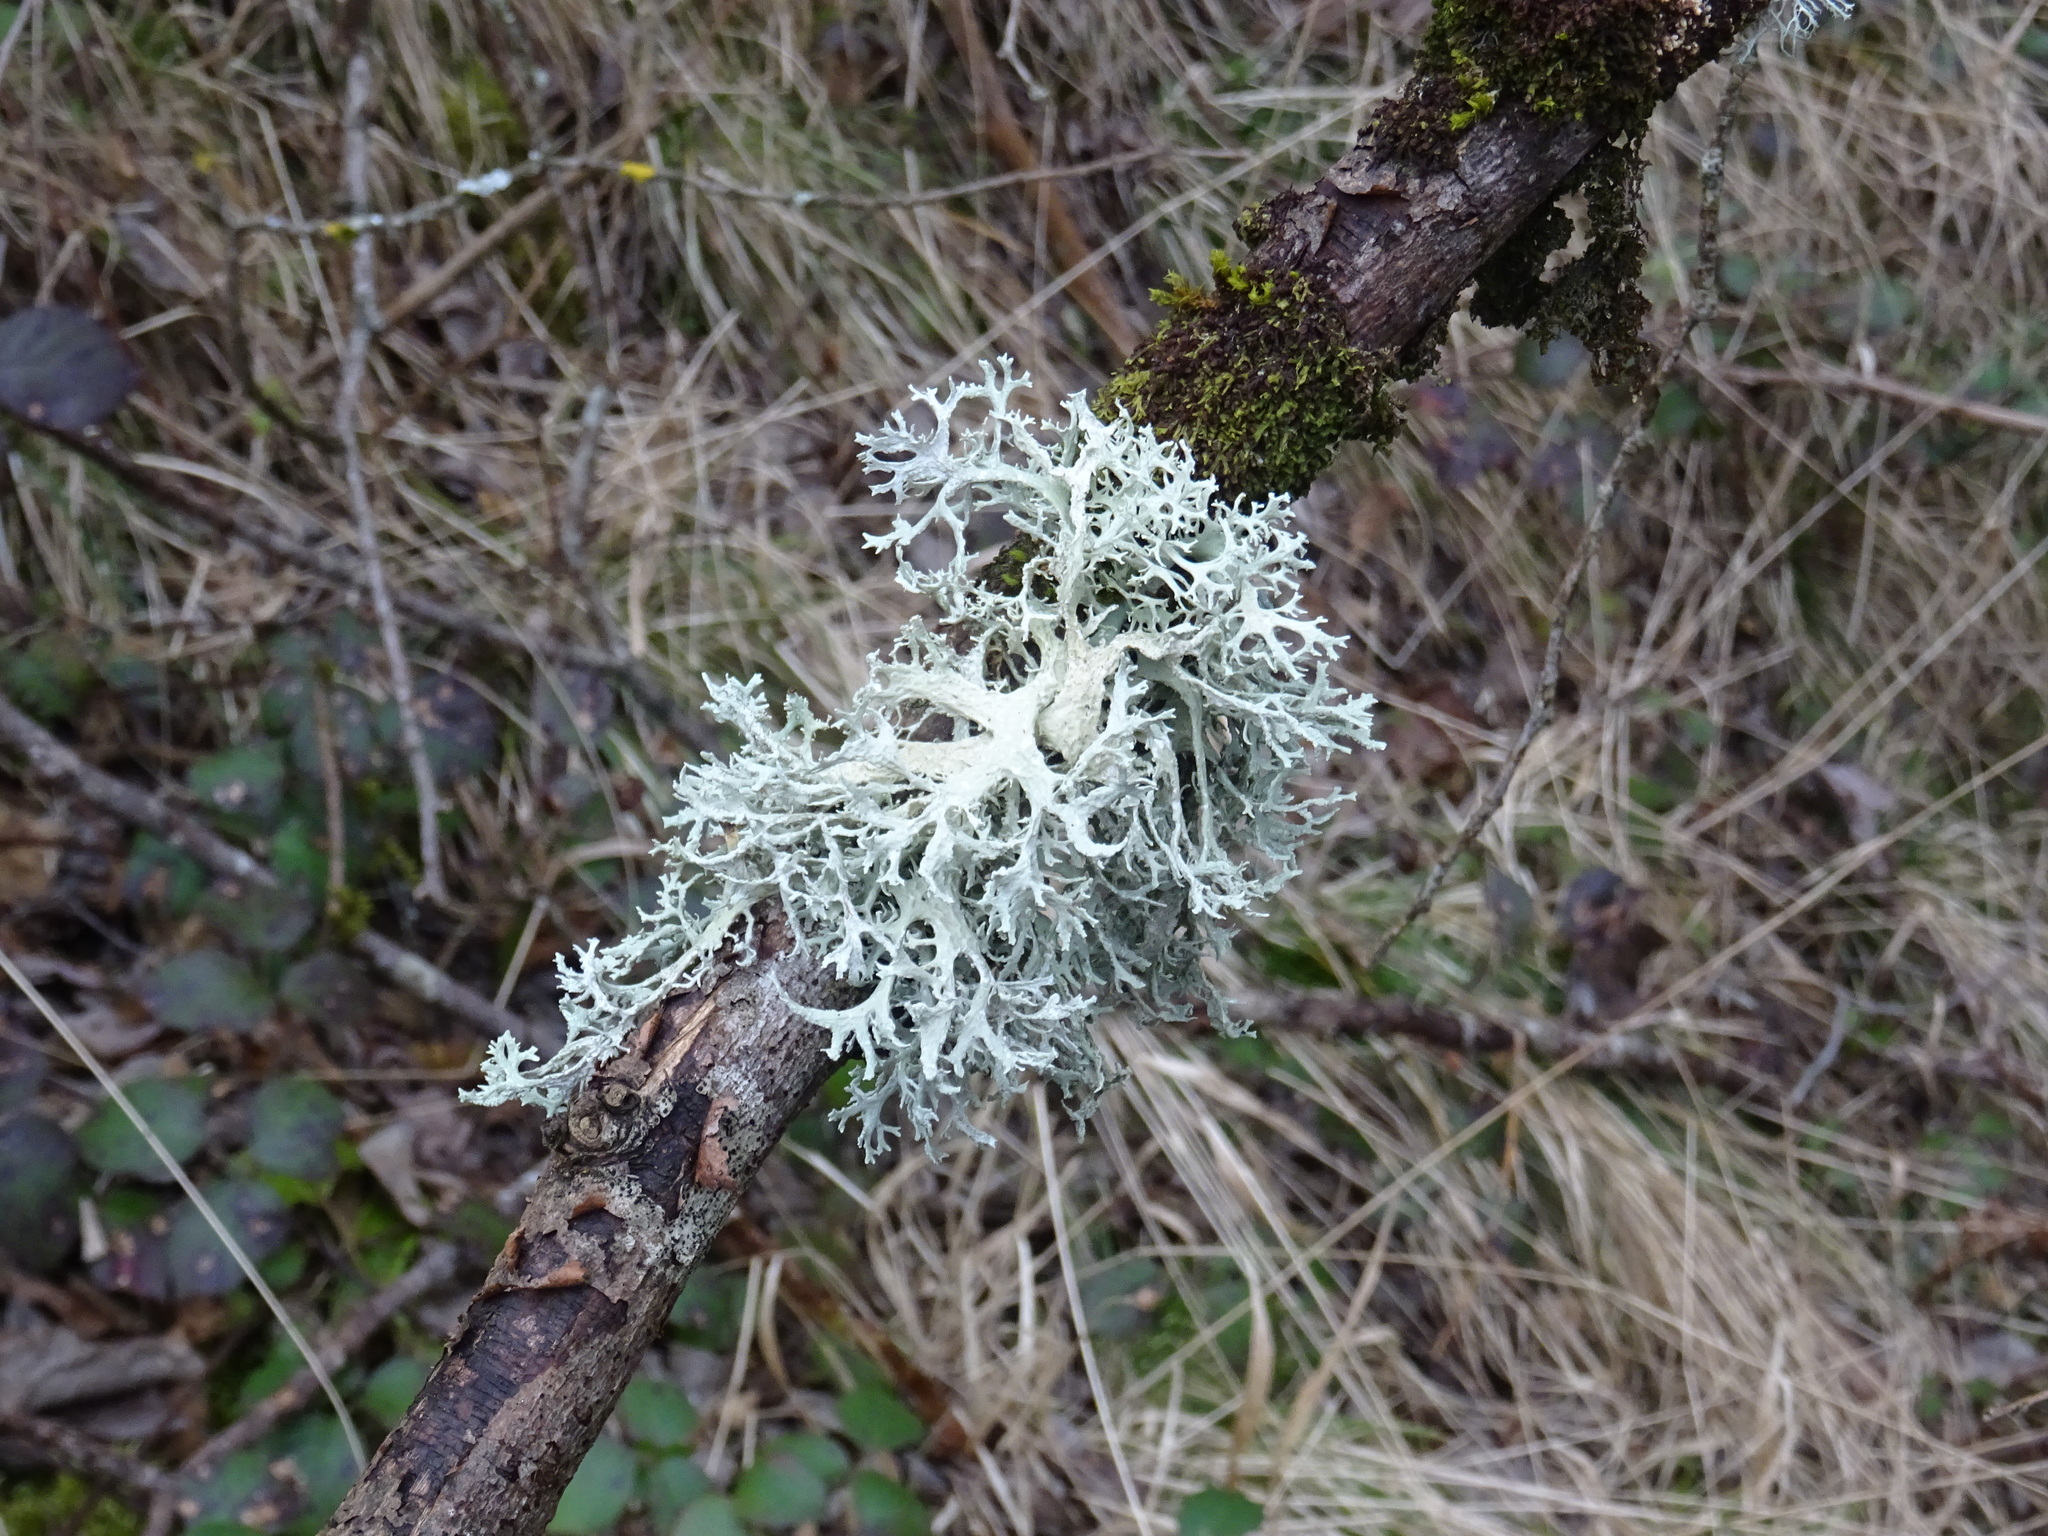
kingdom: Fungi
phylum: Ascomycota
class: Lecanoromycetes
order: Lecanorales
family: Parmeliaceae
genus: Evernia
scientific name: Evernia prunastri
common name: Oak moss
